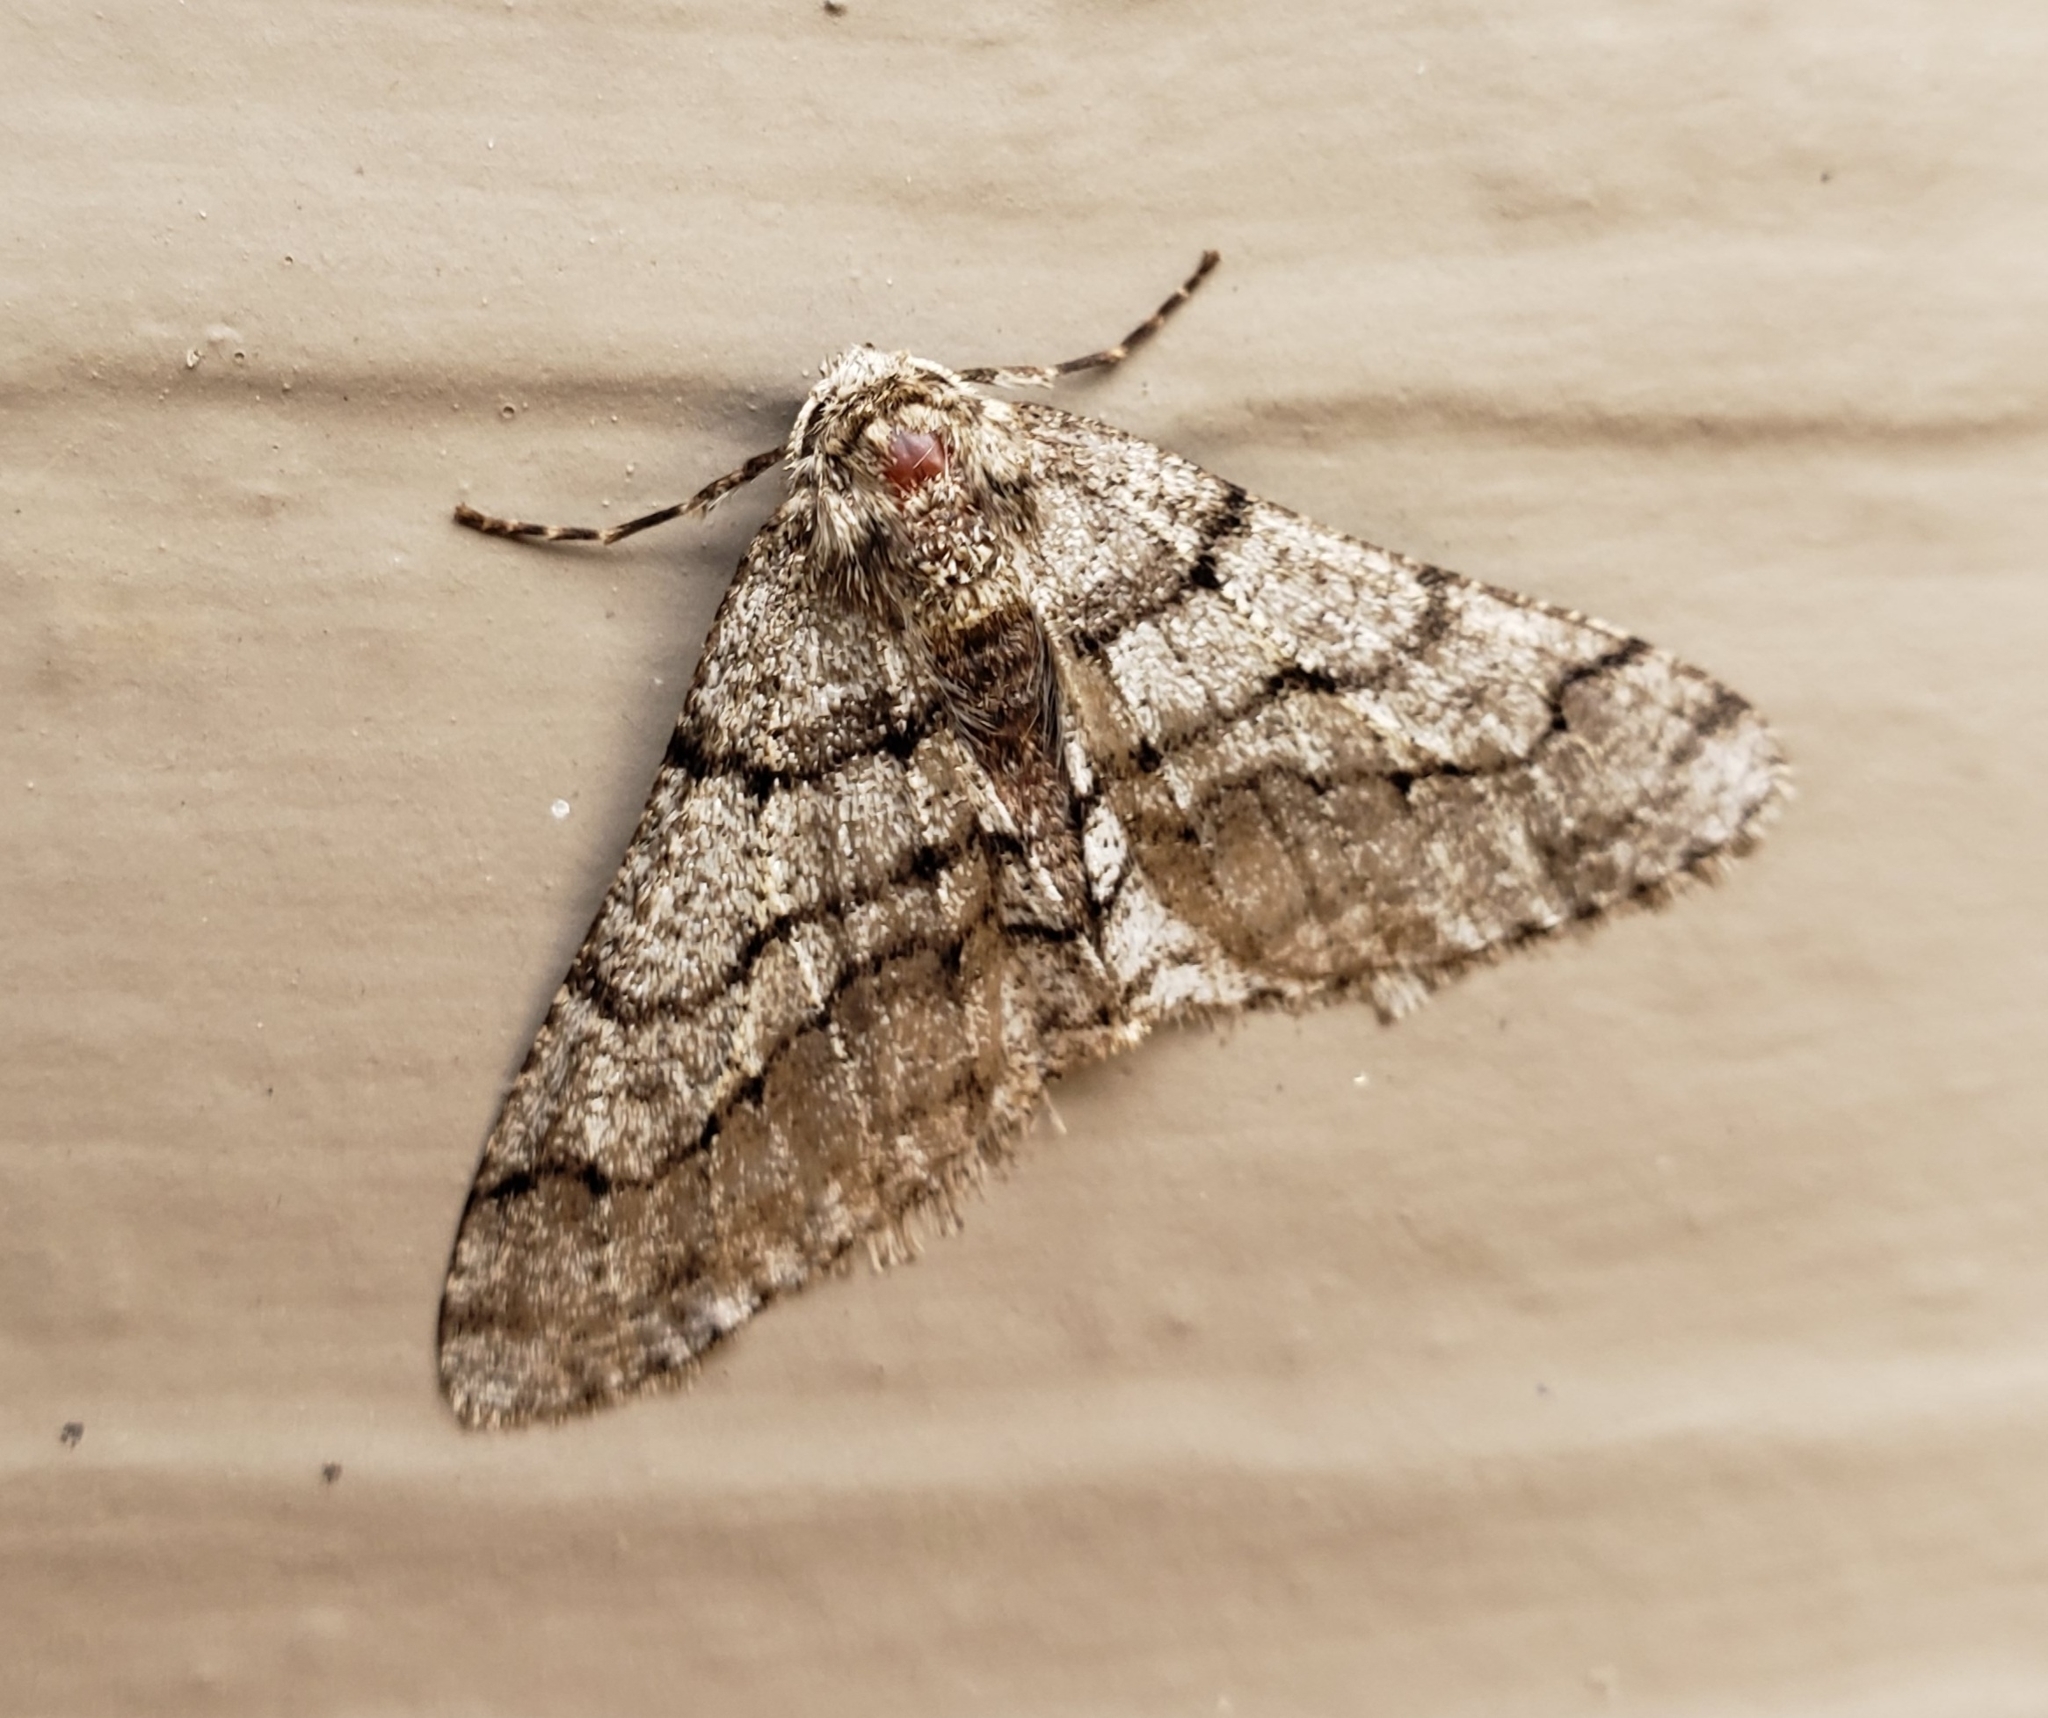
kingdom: Animalia
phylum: Arthropoda
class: Insecta
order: Lepidoptera
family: Geometridae
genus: Phigalia
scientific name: Phigalia titea
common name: Spiny looper
